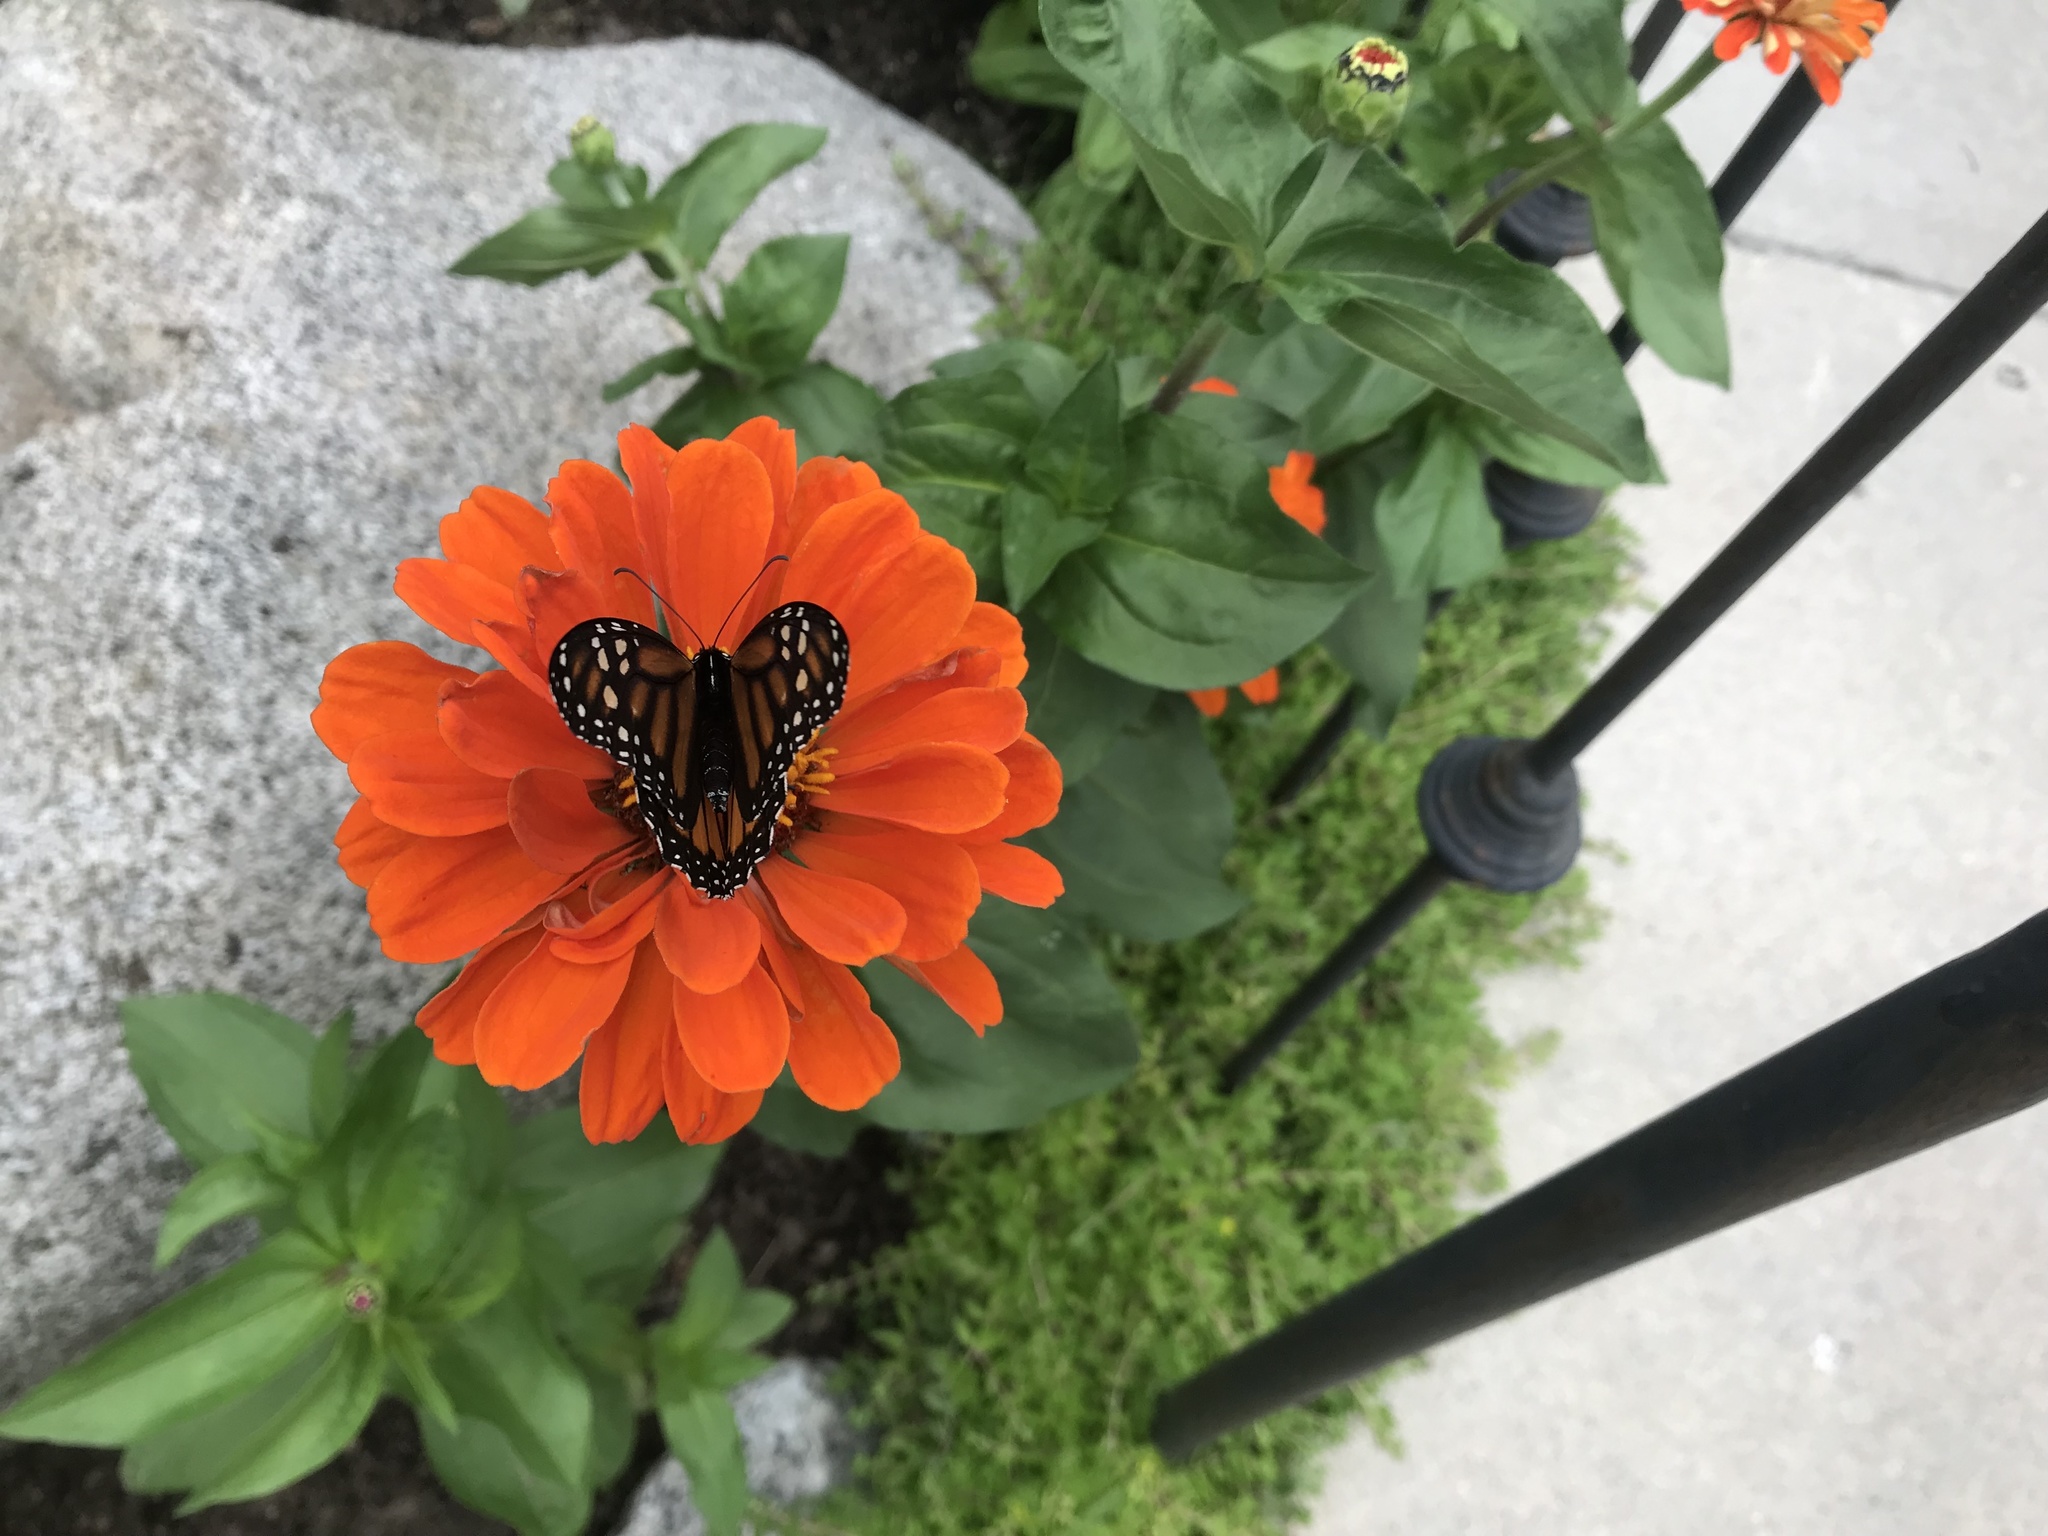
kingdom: Animalia
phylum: Arthropoda
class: Insecta
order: Lepidoptera
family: Nymphalidae
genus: Danaus
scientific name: Danaus plexippus
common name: Monarch
